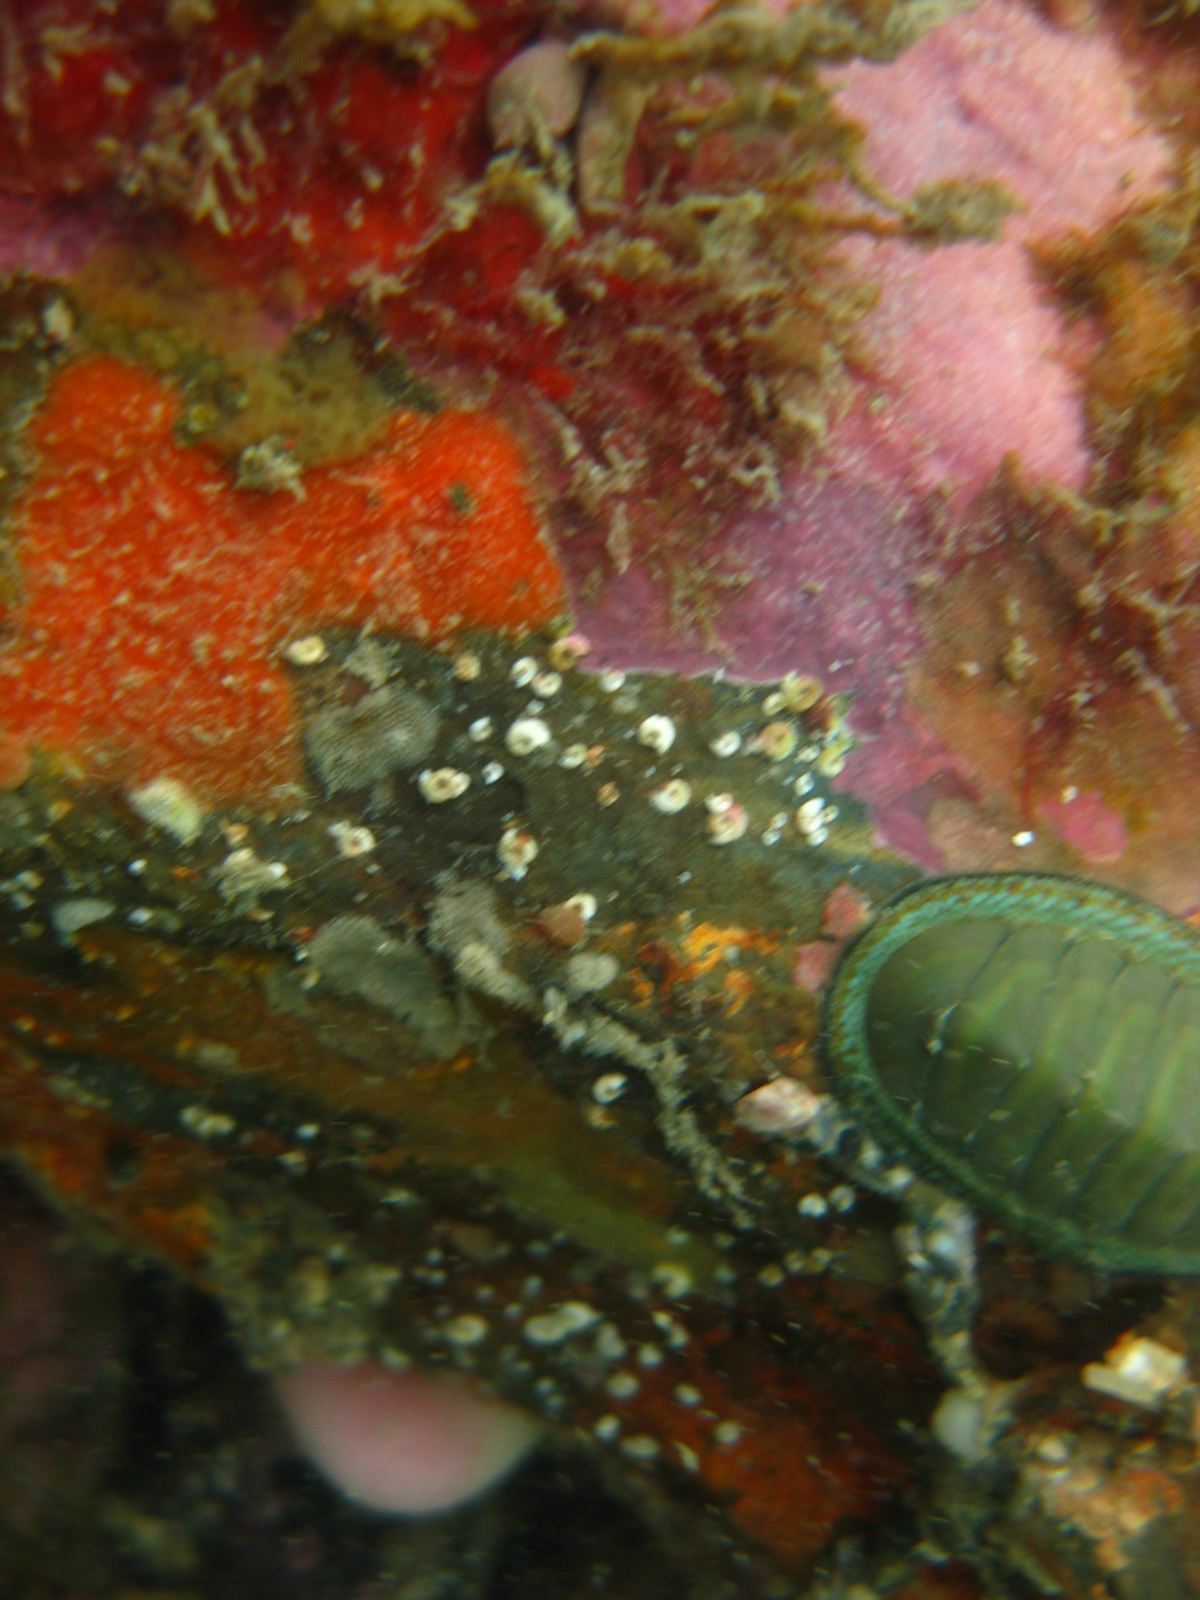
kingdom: Animalia
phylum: Mollusca
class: Polyplacophora
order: Chitonida
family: Chitonidae
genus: Chiton
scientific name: Chiton glaucus
